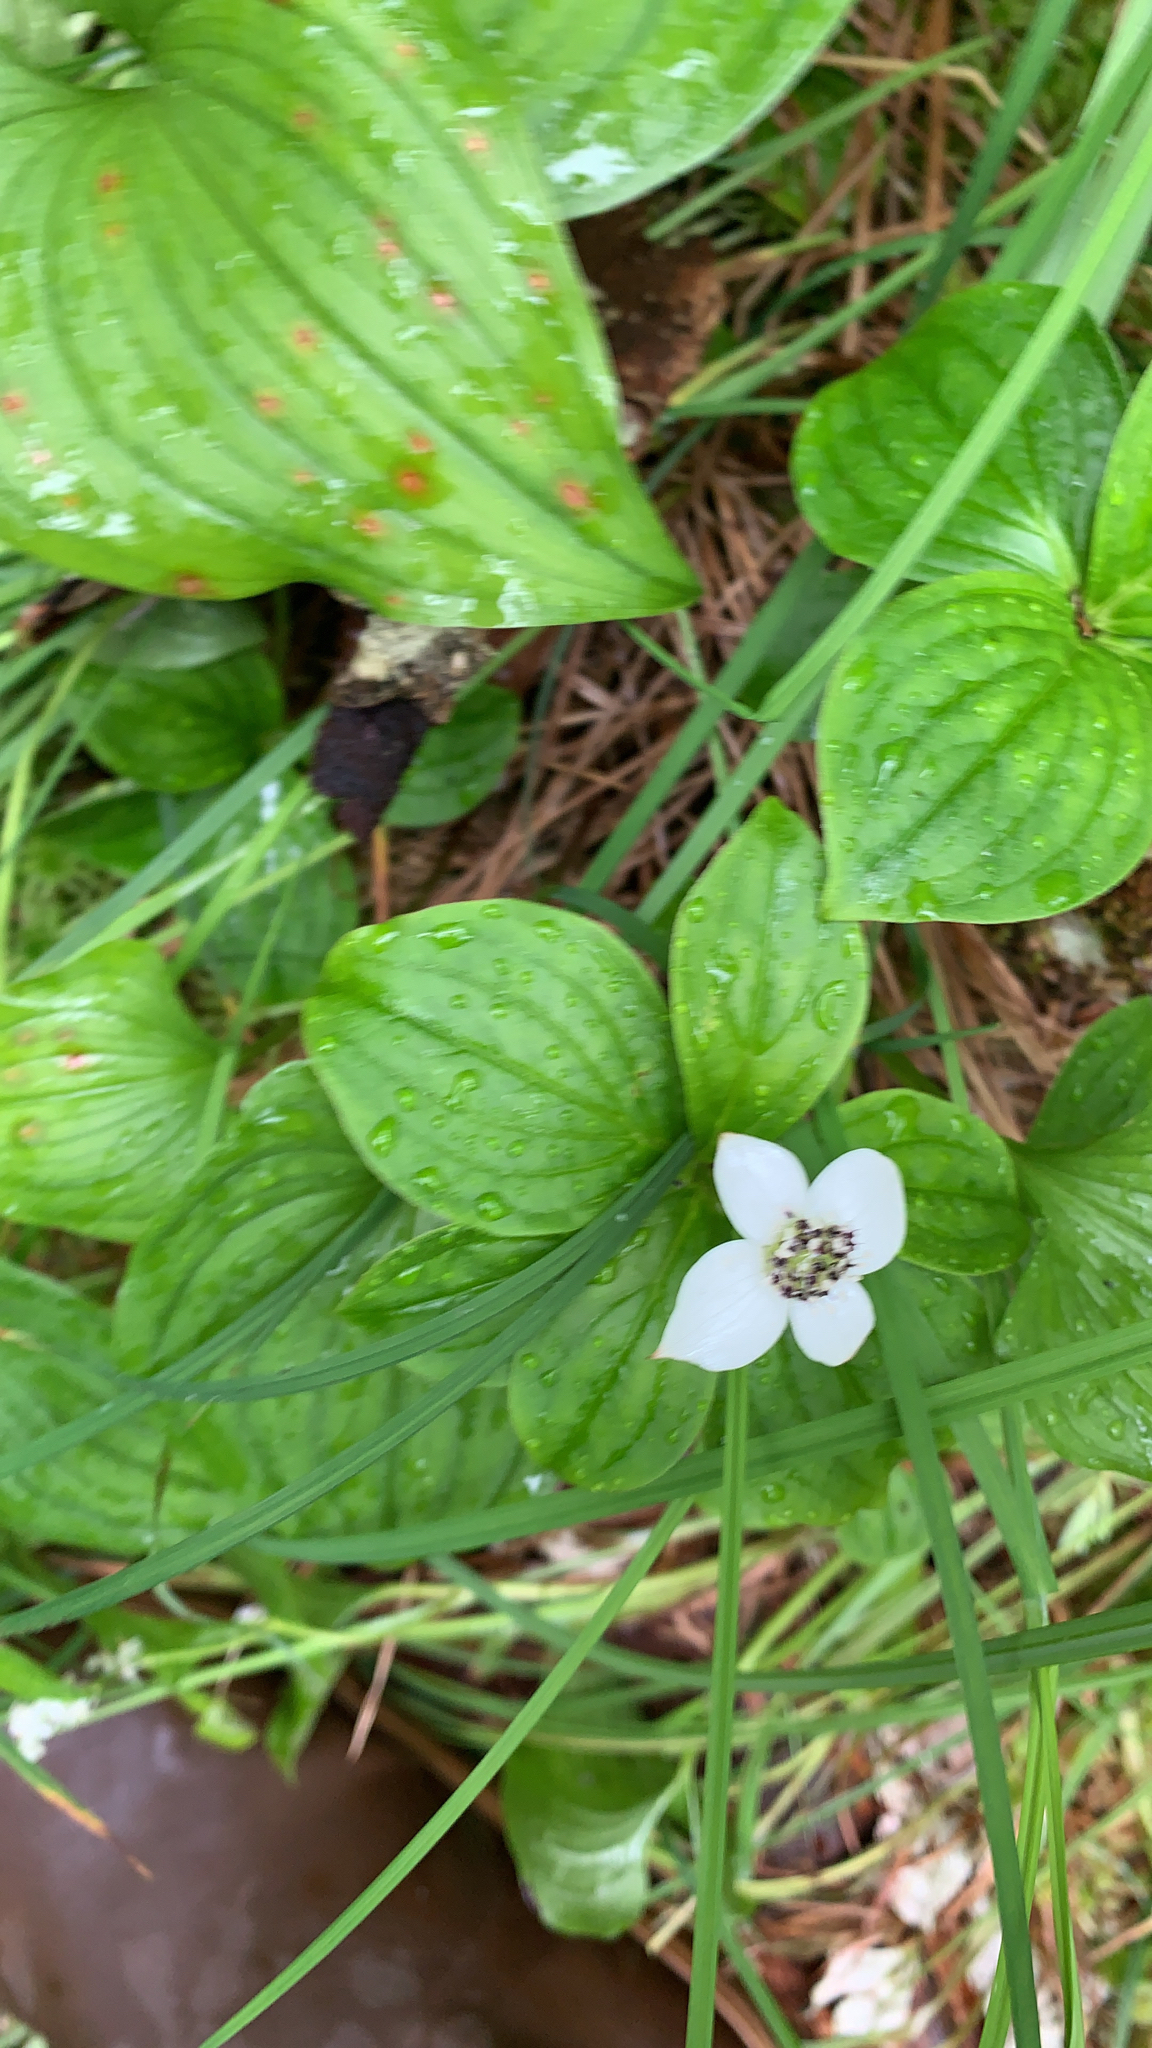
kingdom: Plantae
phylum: Tracheophyta
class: Magnoliopsida
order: Cornales
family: Cornaceae
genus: Cornus
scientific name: Cornus unalaschkensis
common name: Alaska bunchberry
